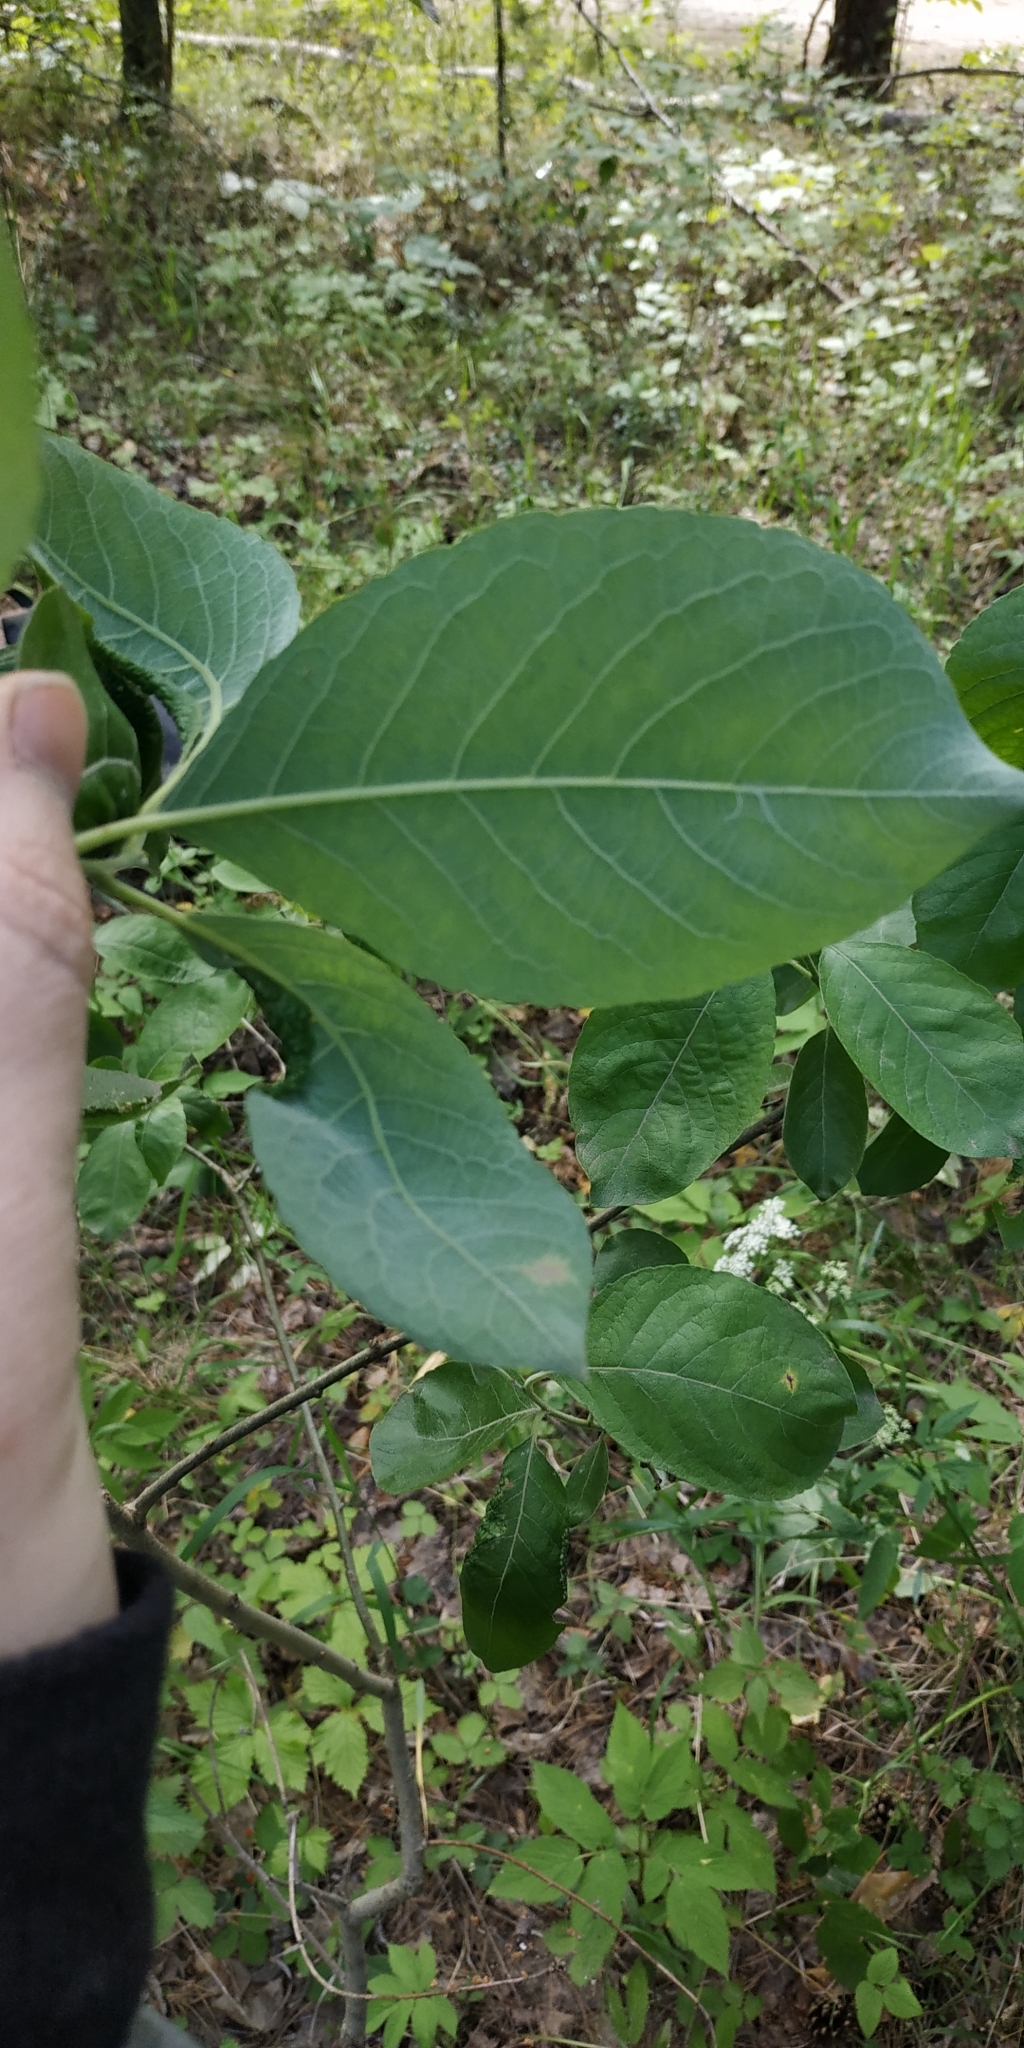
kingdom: Plantae
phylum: Tracheophyta
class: Magnoliopsida
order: Malpighiales
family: Salicaceae
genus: Salix
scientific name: Salix caprea
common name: Goat willow
